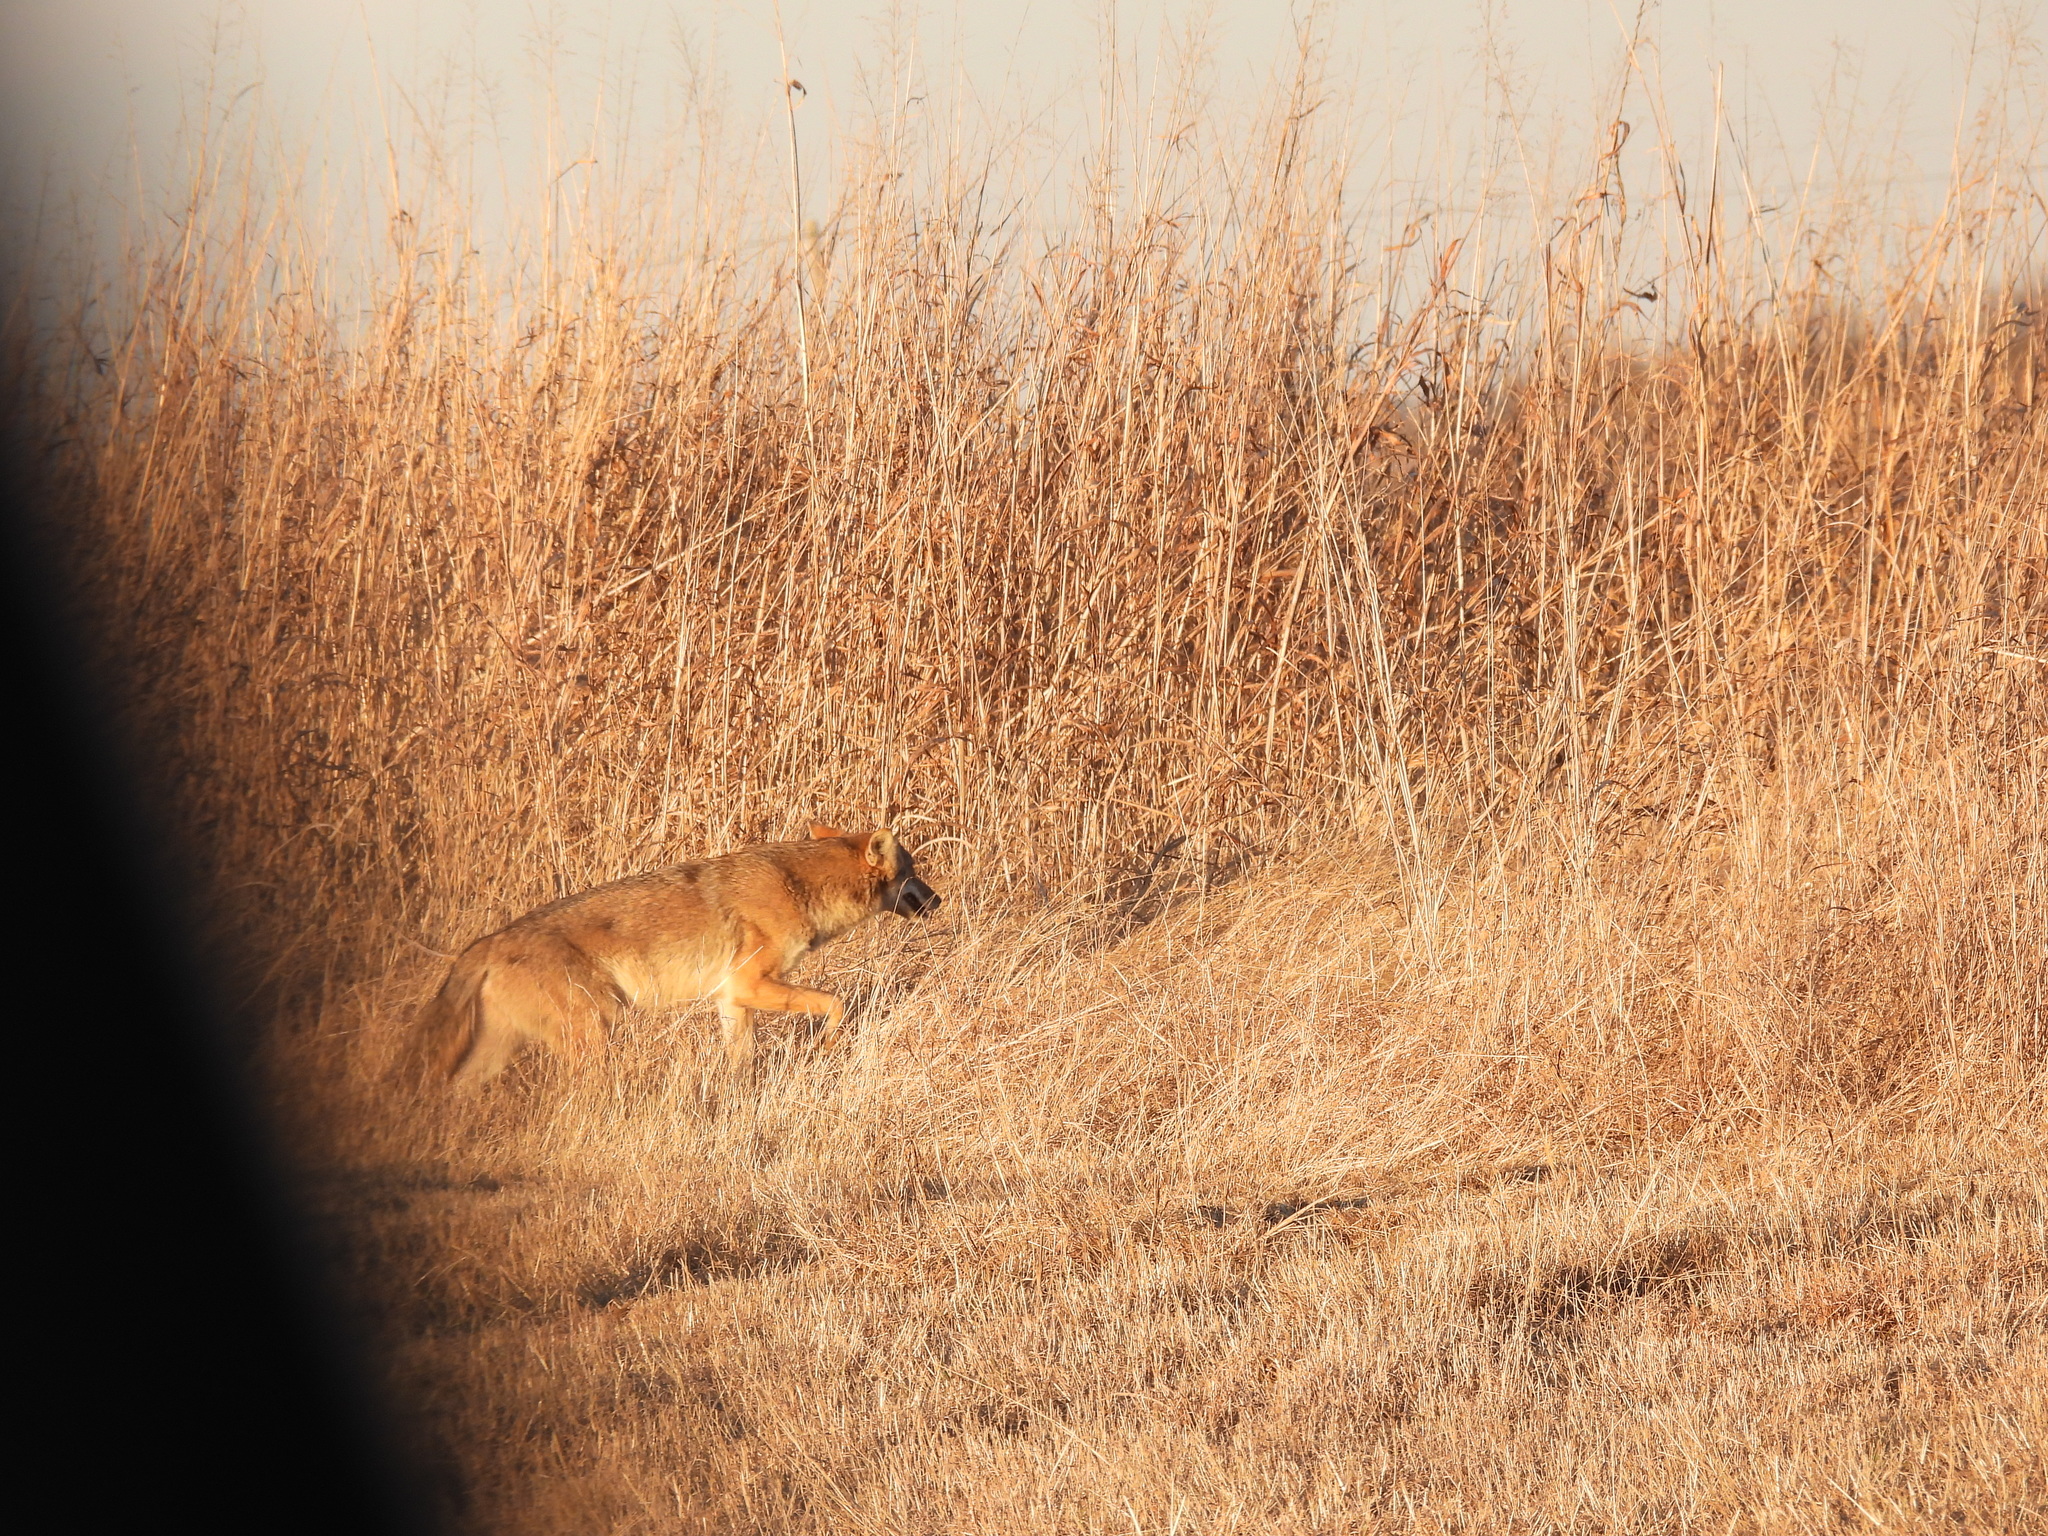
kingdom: Animalia
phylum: Chordata
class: Mammalia
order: Carnivora
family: Canidae
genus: Canis
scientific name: Canis latrans
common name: Coyote
